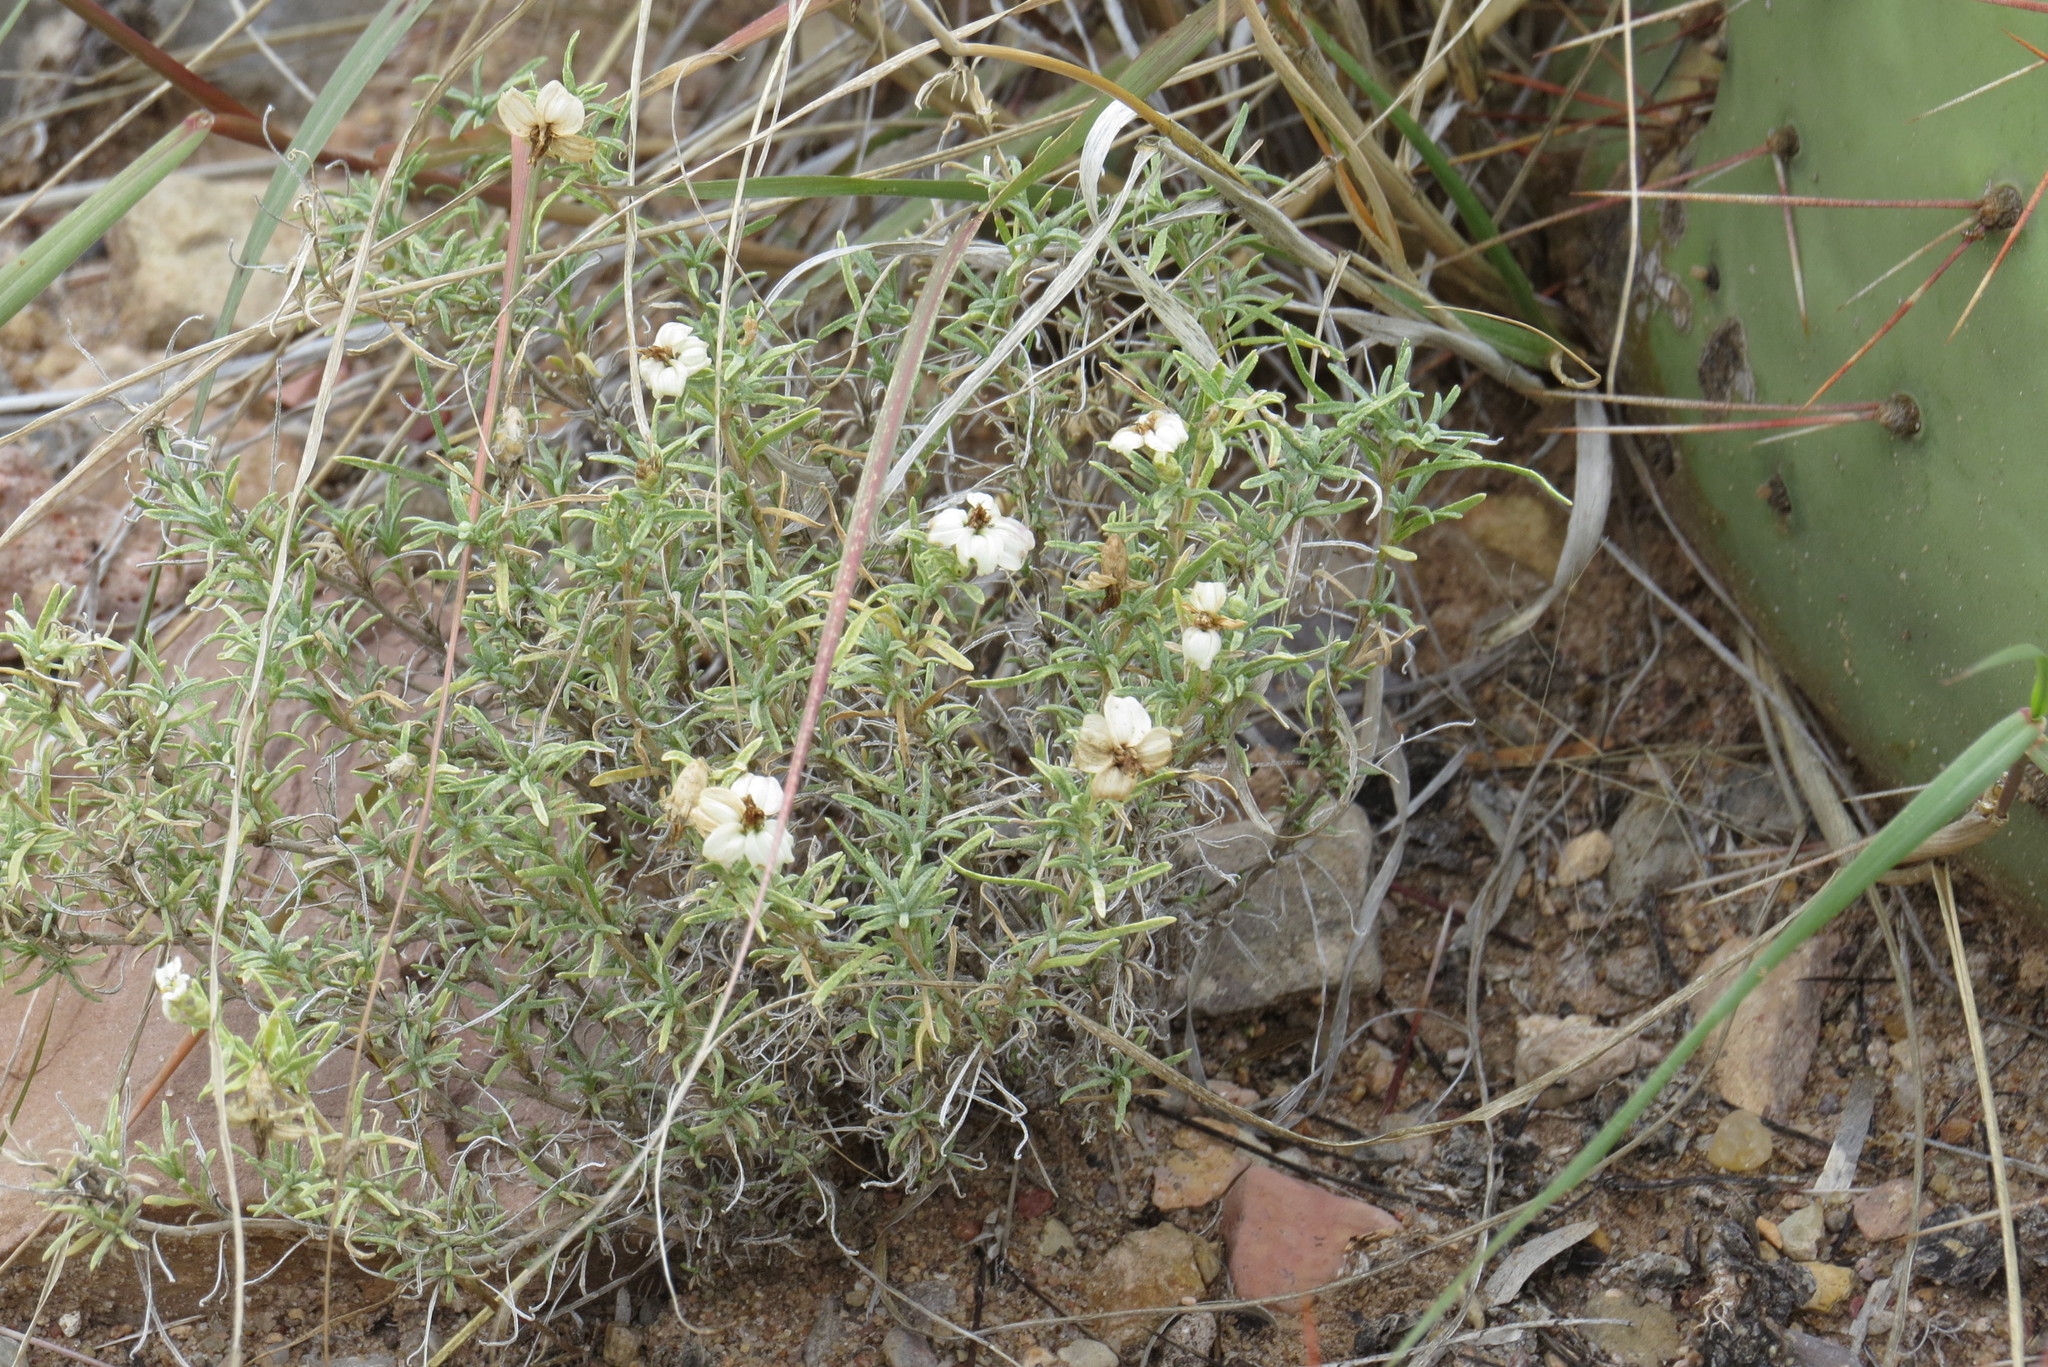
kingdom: Plantae
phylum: Tracheophyta
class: Magnoliopsida
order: Asterales
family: Asteraceae
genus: Zinnia
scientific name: Zinnia acerosa
